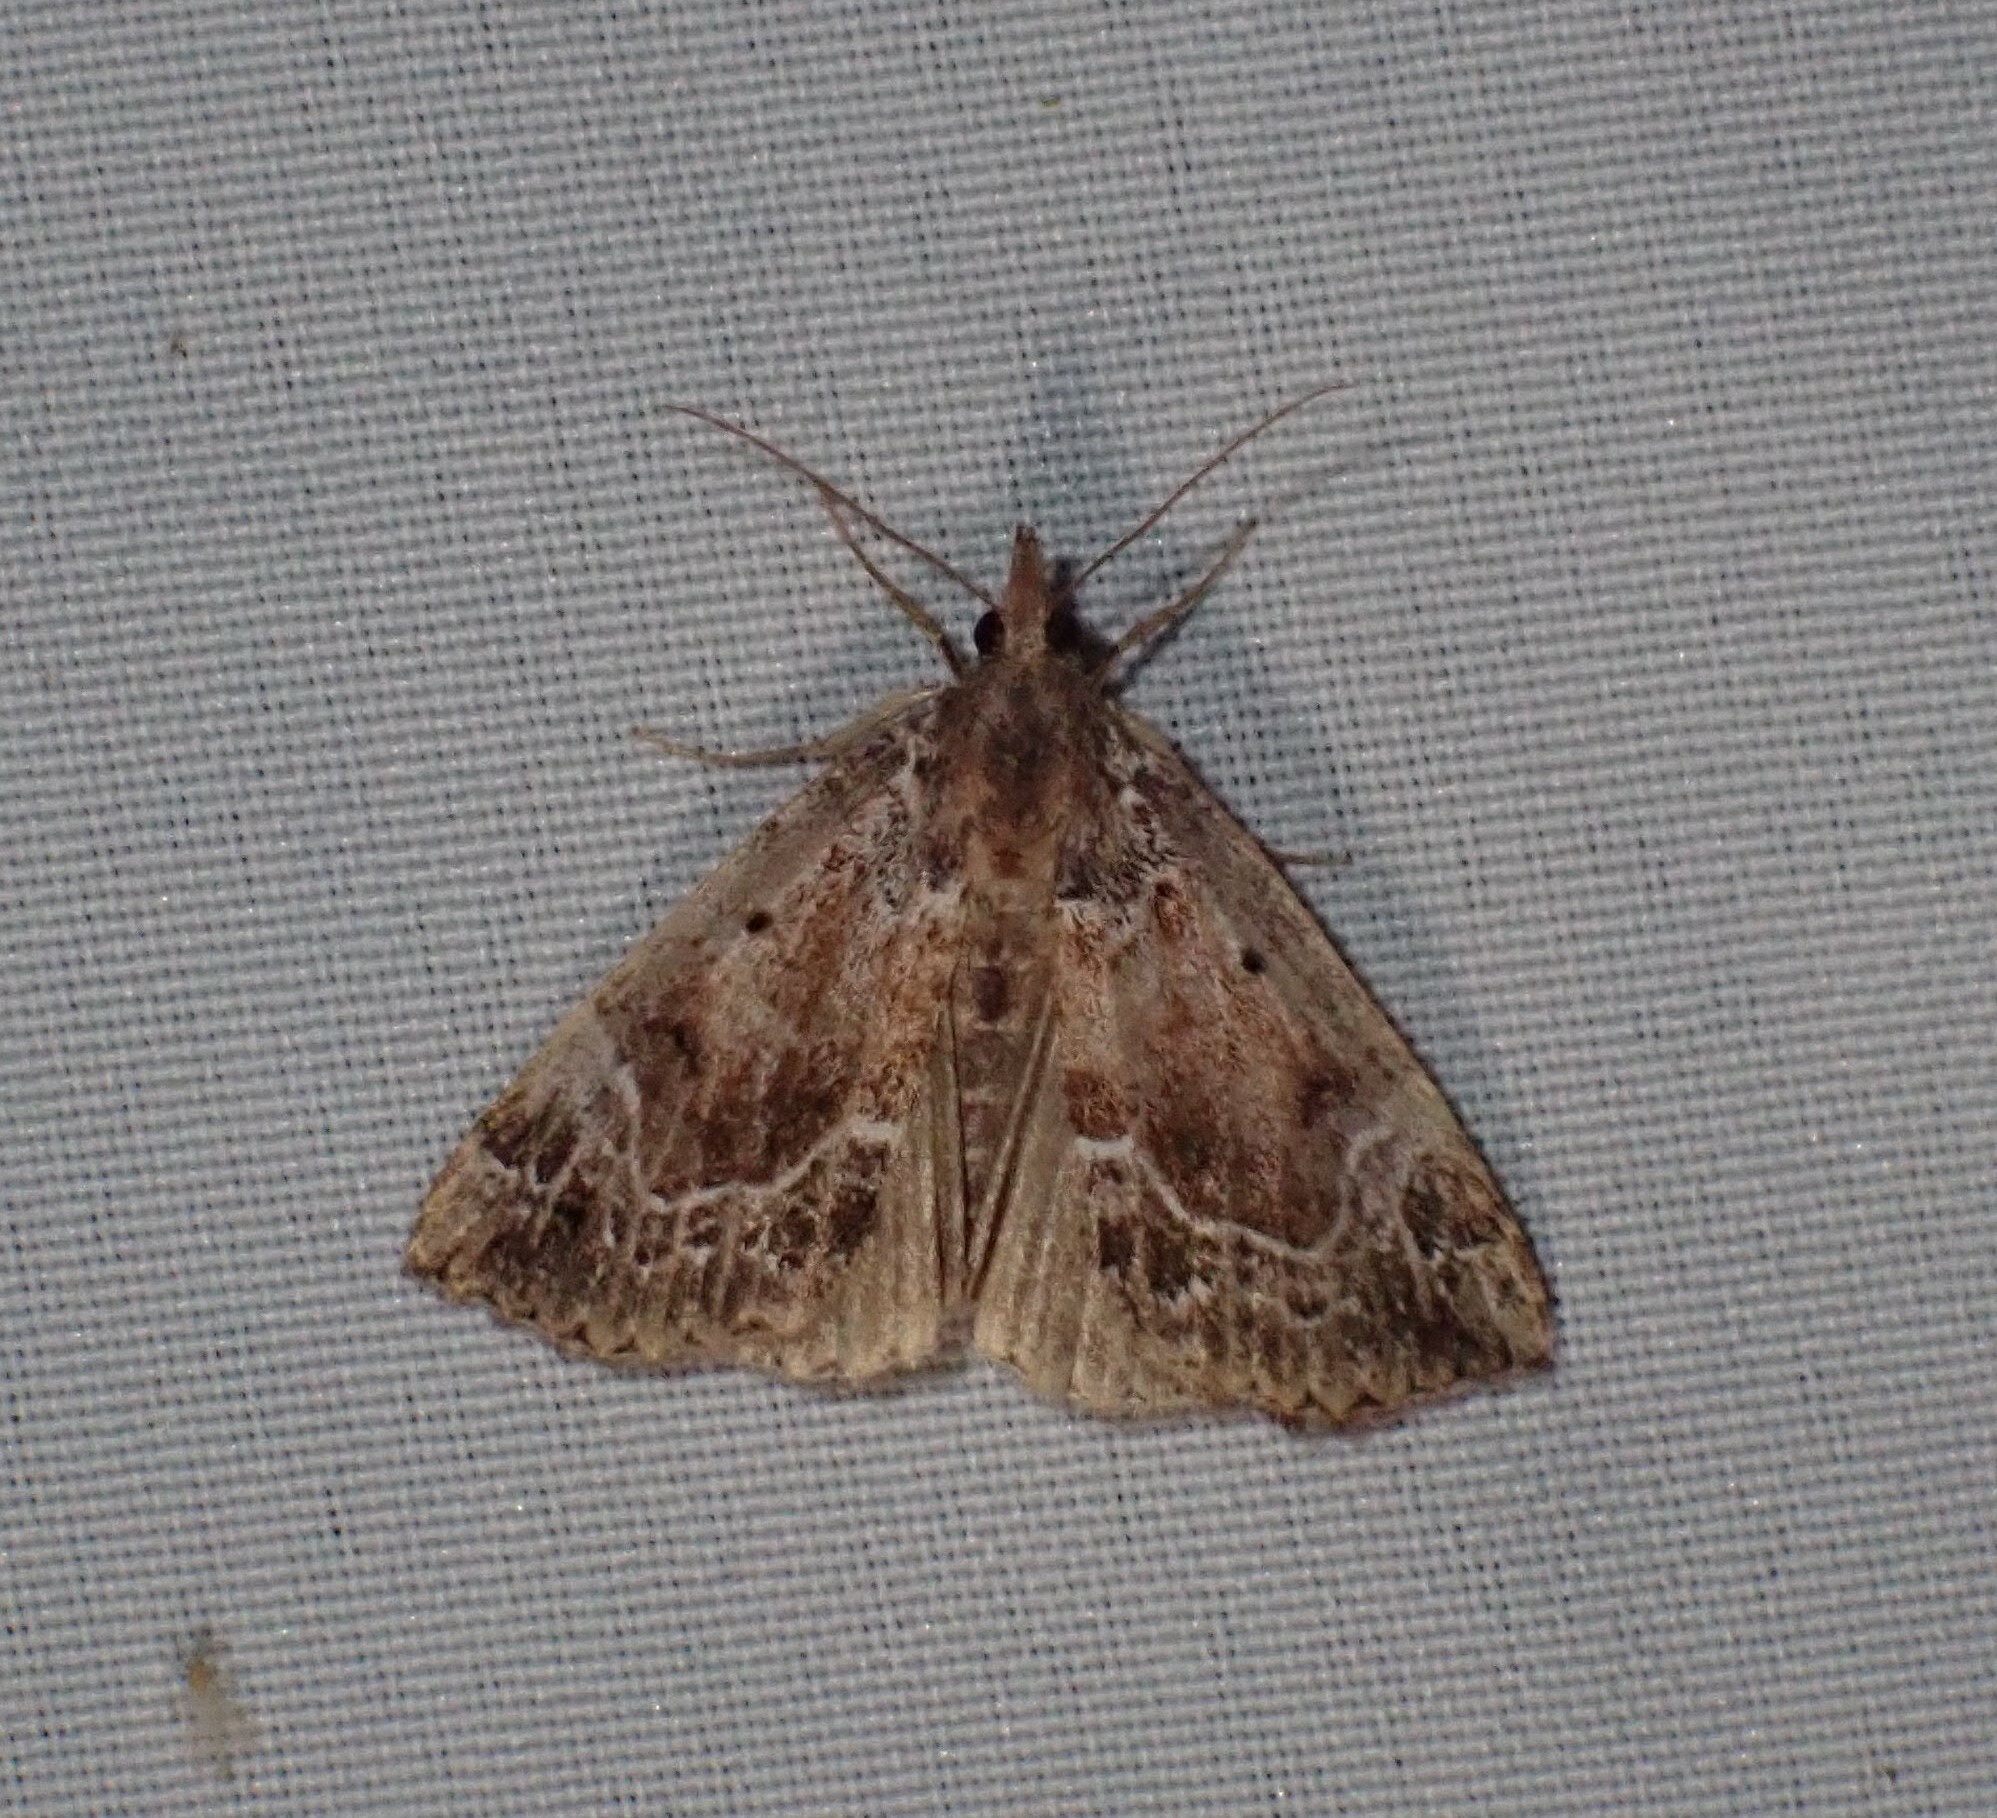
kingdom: Animalia
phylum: Arthropoda
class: Insecta
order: Lepidoptera
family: Erebidae
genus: Hypena
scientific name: Hypena abalienalis
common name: White-lined snout
